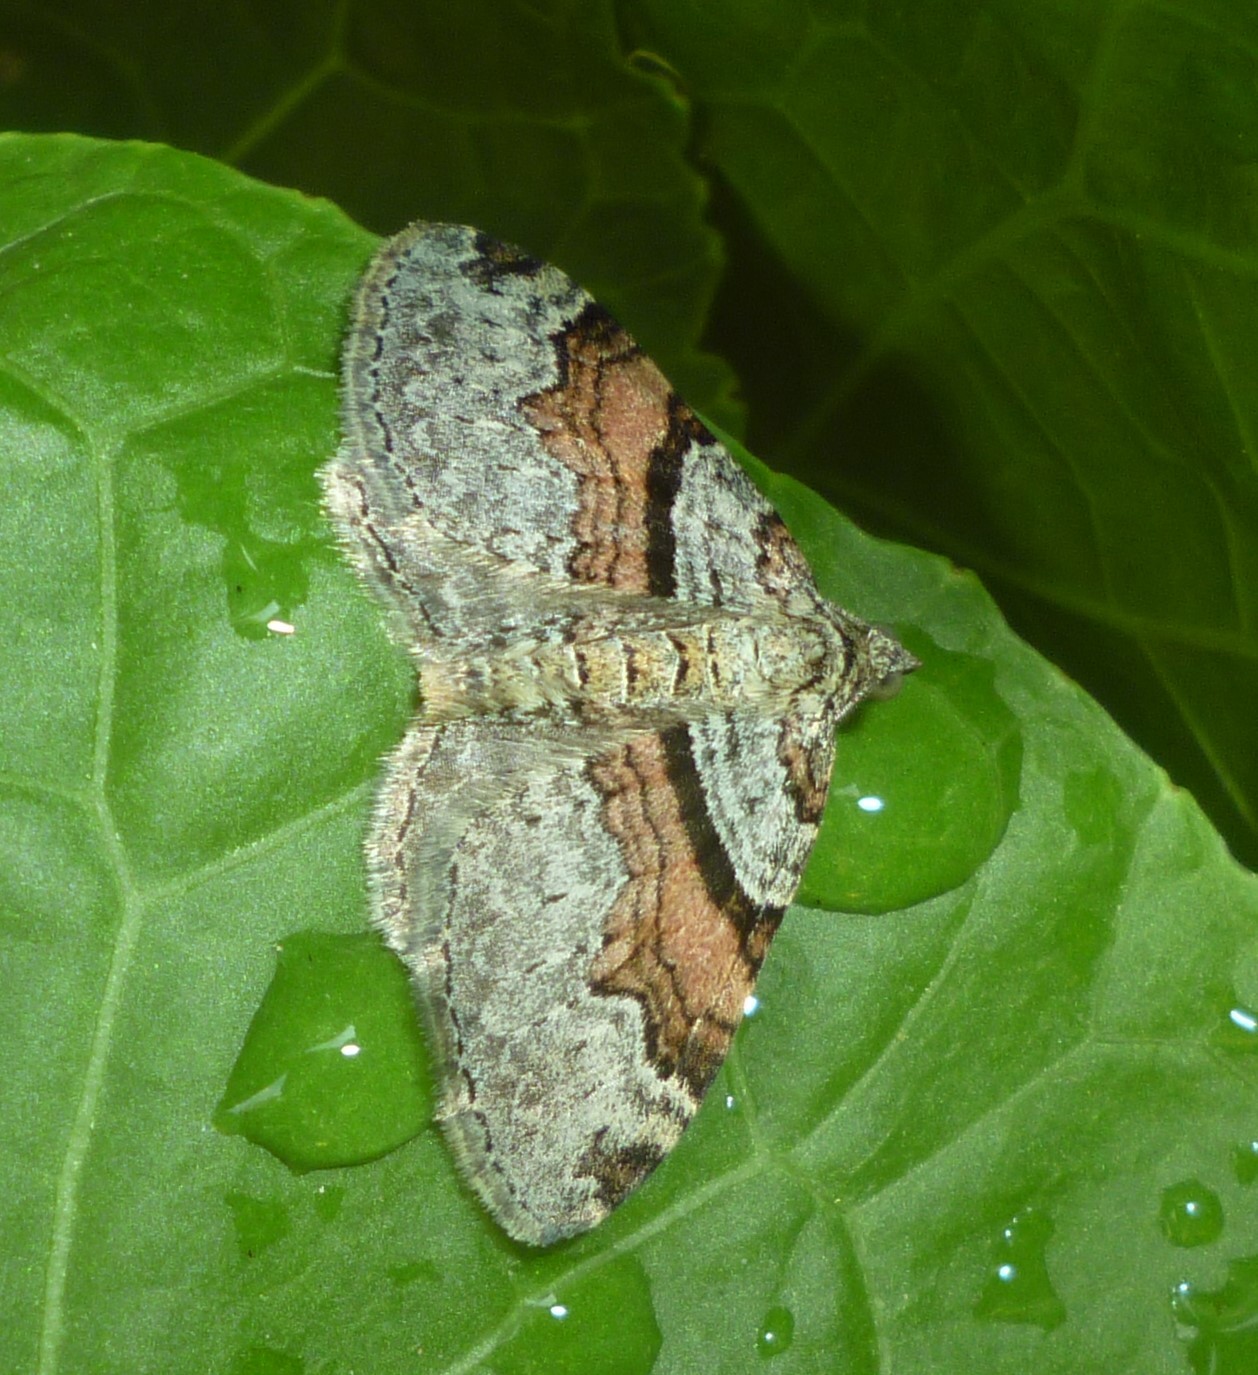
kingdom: Animalia
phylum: Arthropoda
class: Insecta
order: Lepidoptera
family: Geometridae
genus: Xanthorhoe
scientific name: Xanthorhoe labradorensis
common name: Labrador carpet
